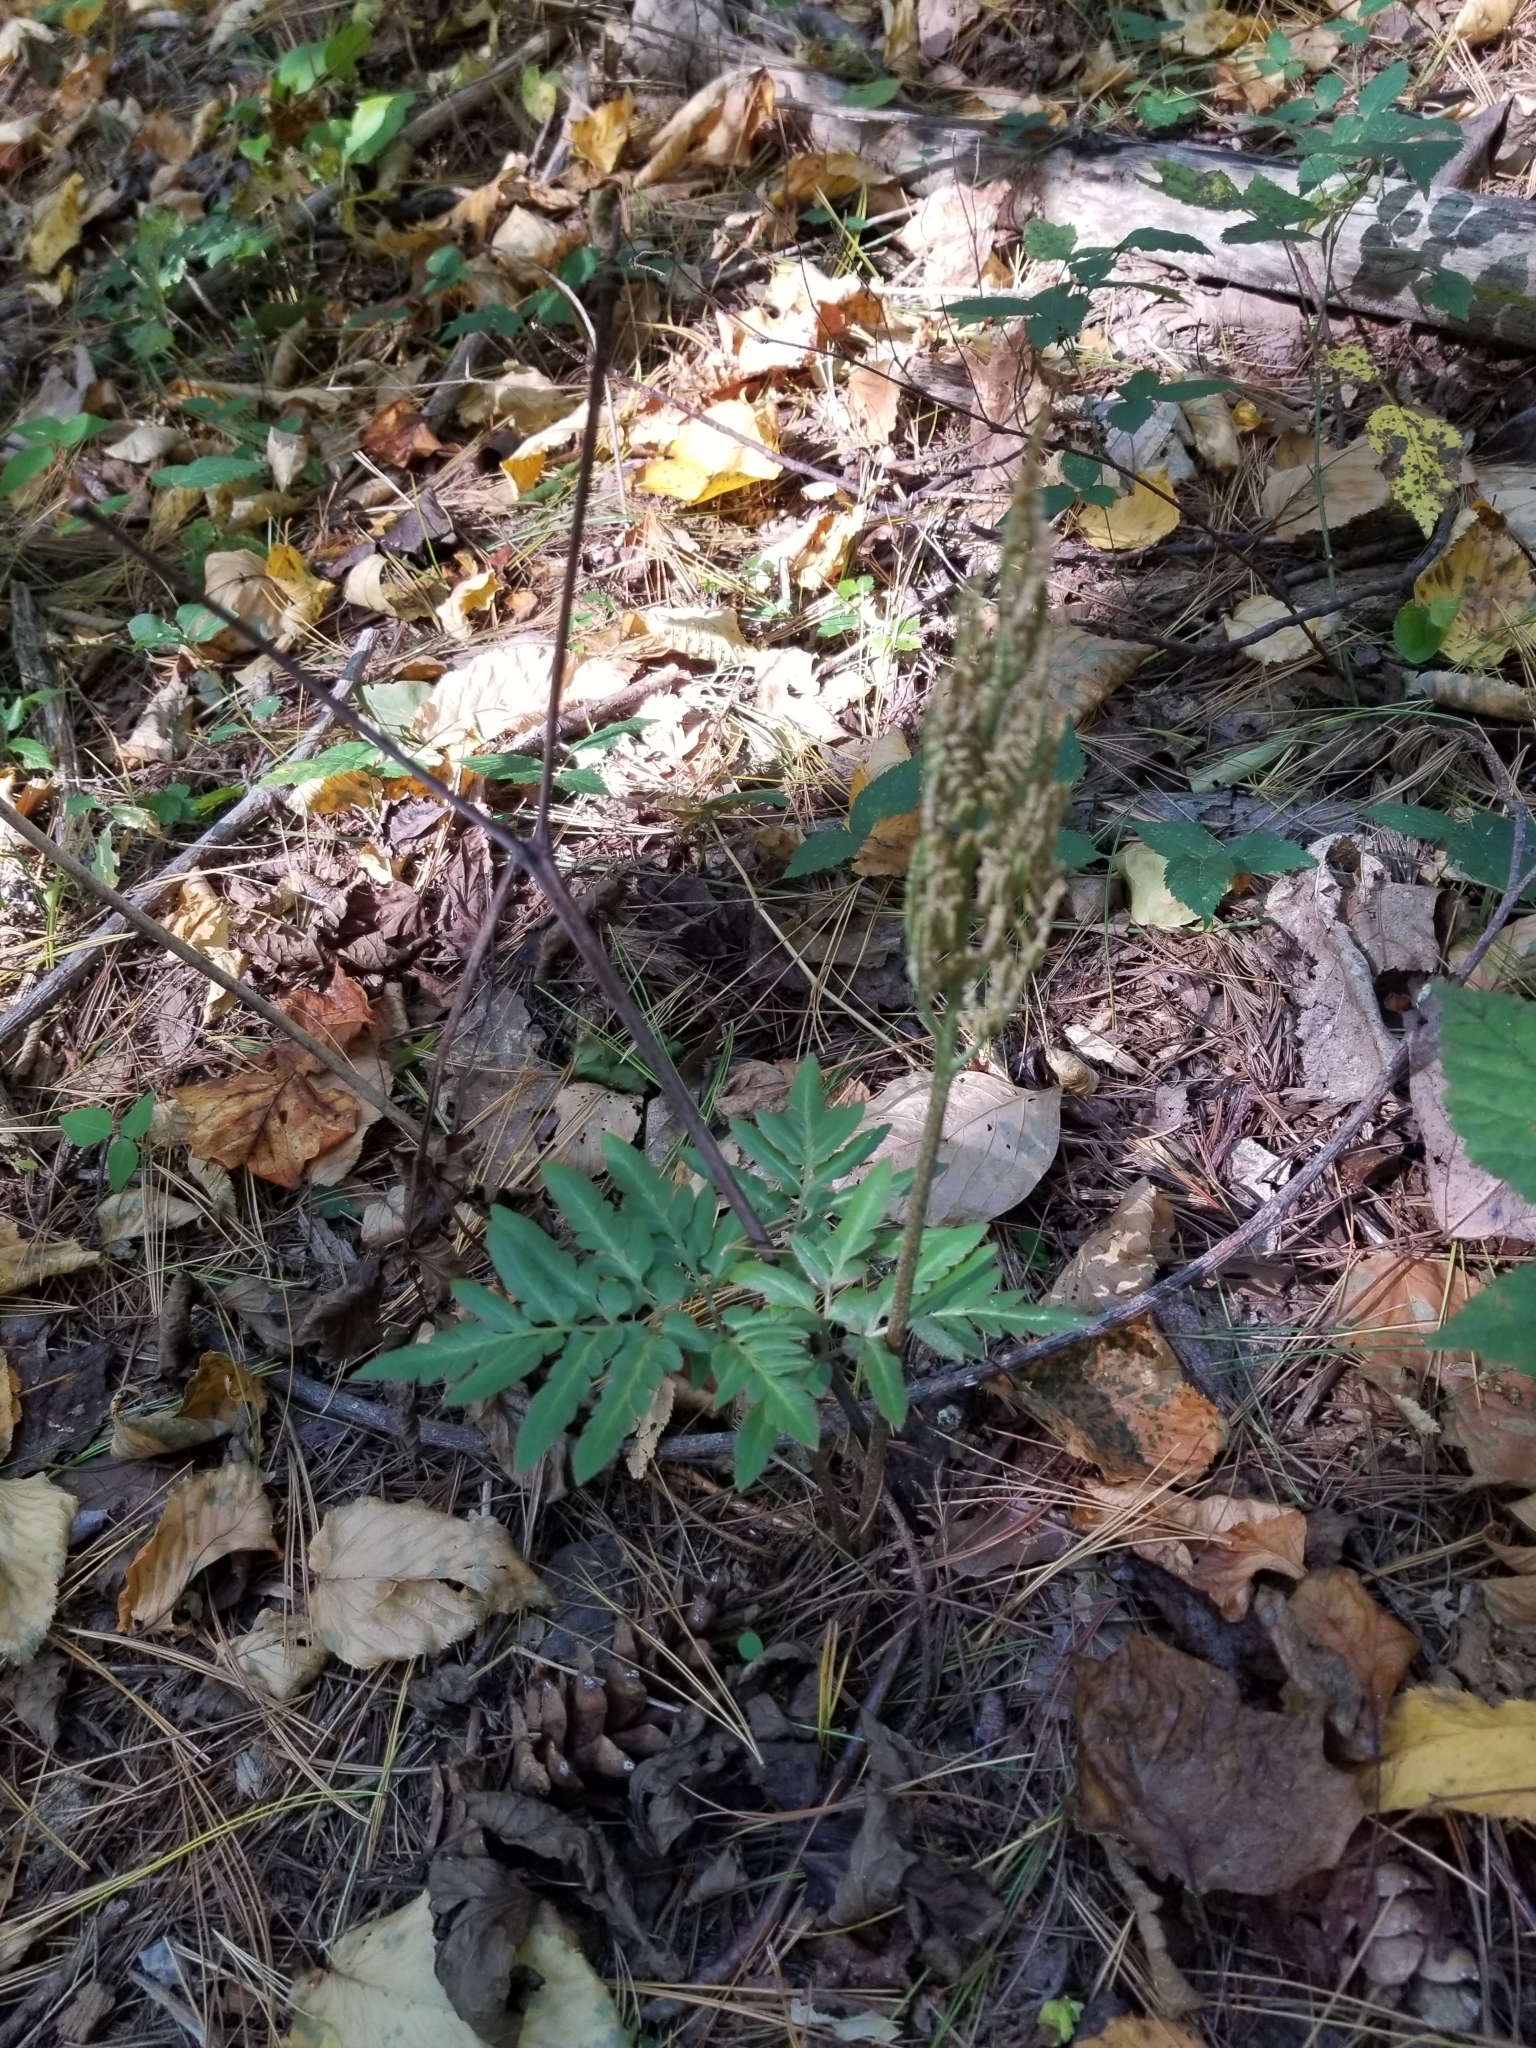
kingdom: Plantae
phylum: Tracheophyta
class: Polypodiopsida
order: Ophioglossales
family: Ophioglossaceae
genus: Sceptridium
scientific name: Sceptridium dissectum
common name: Cut-leaved grapefern
